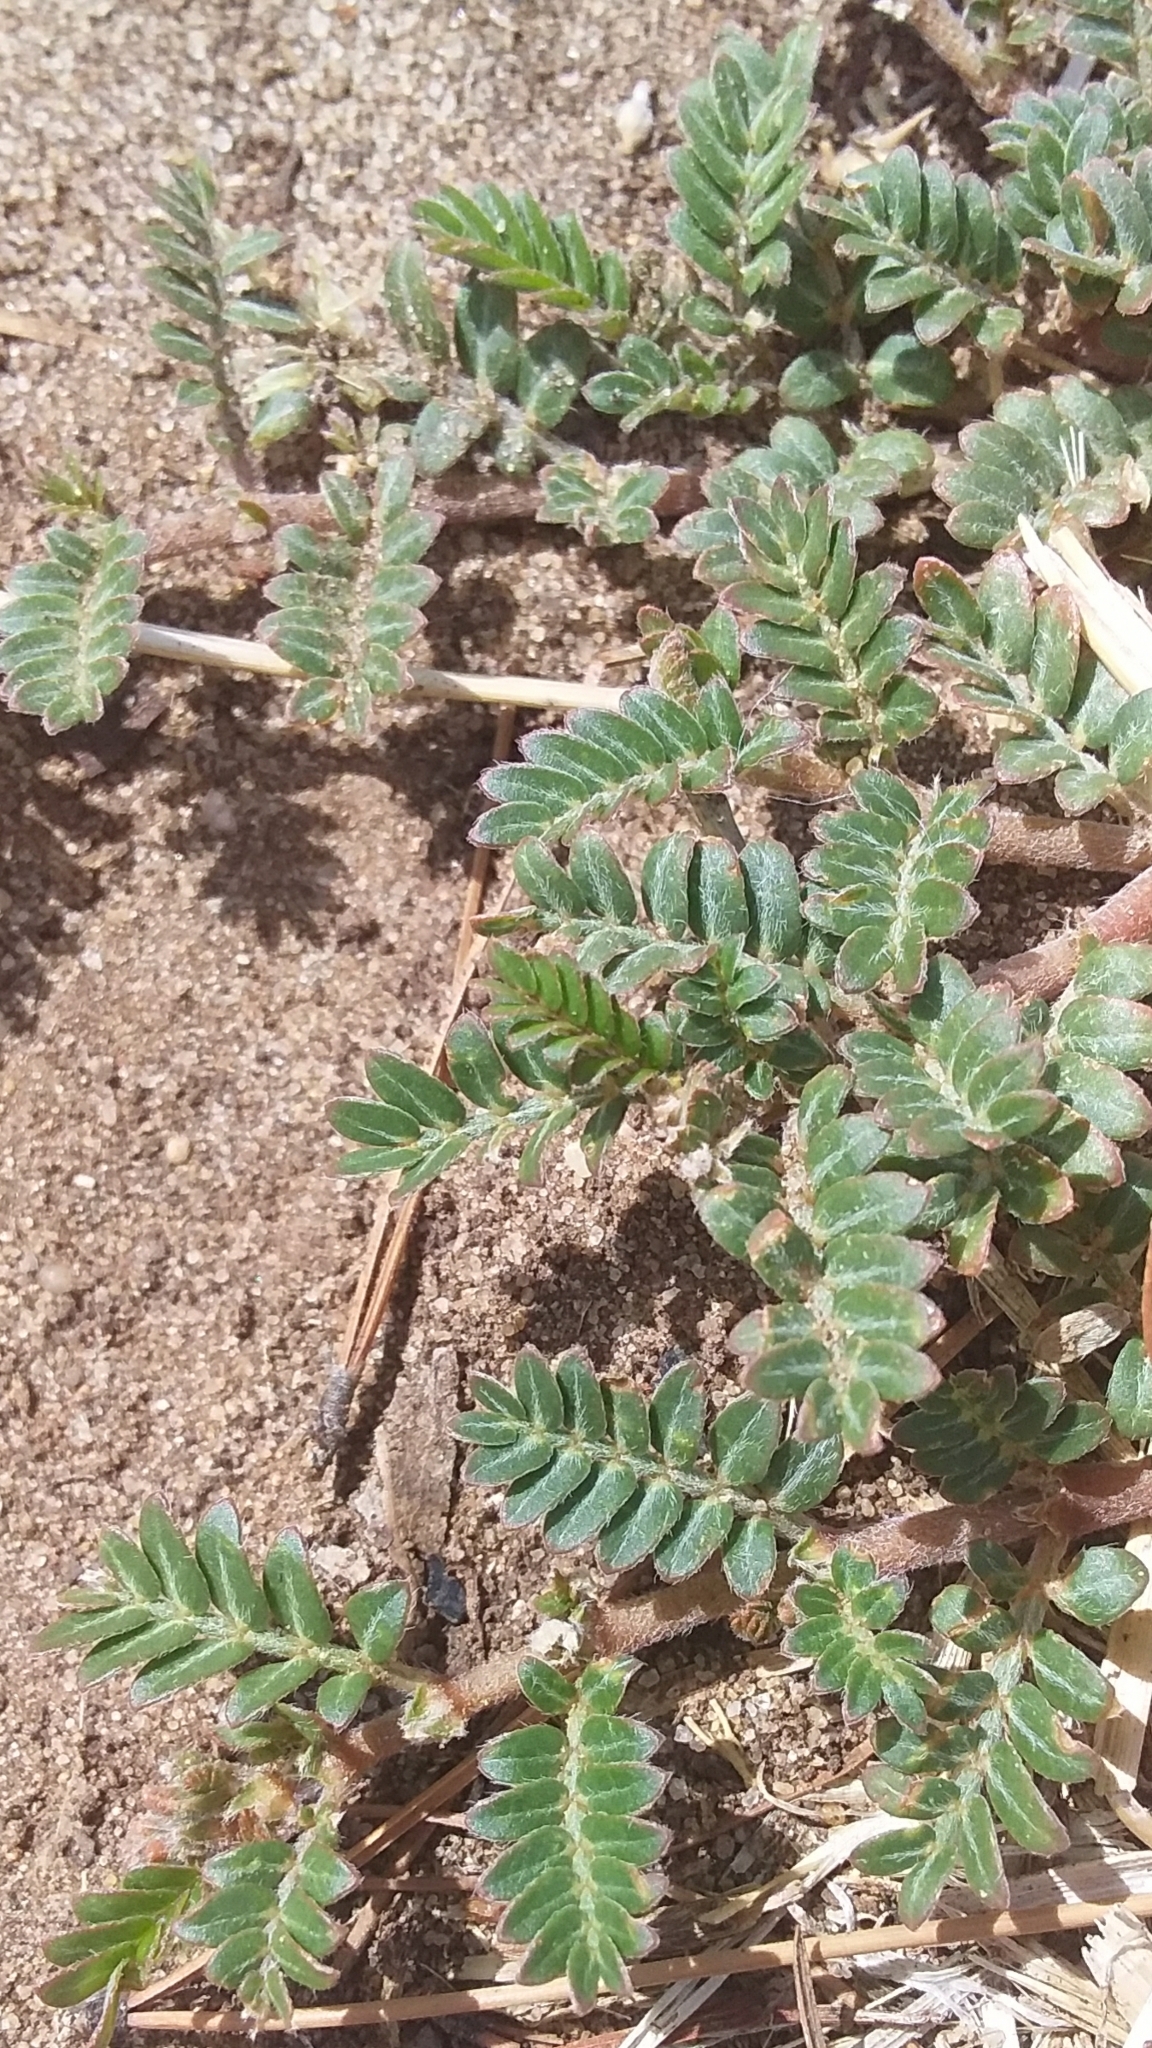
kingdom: Plantae
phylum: Tracheophyta
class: Magnoliopsida
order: Zygophyllales
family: Zygophyllaceae
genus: Tribulus
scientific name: Tribulus terrestris
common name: Puncturevine
